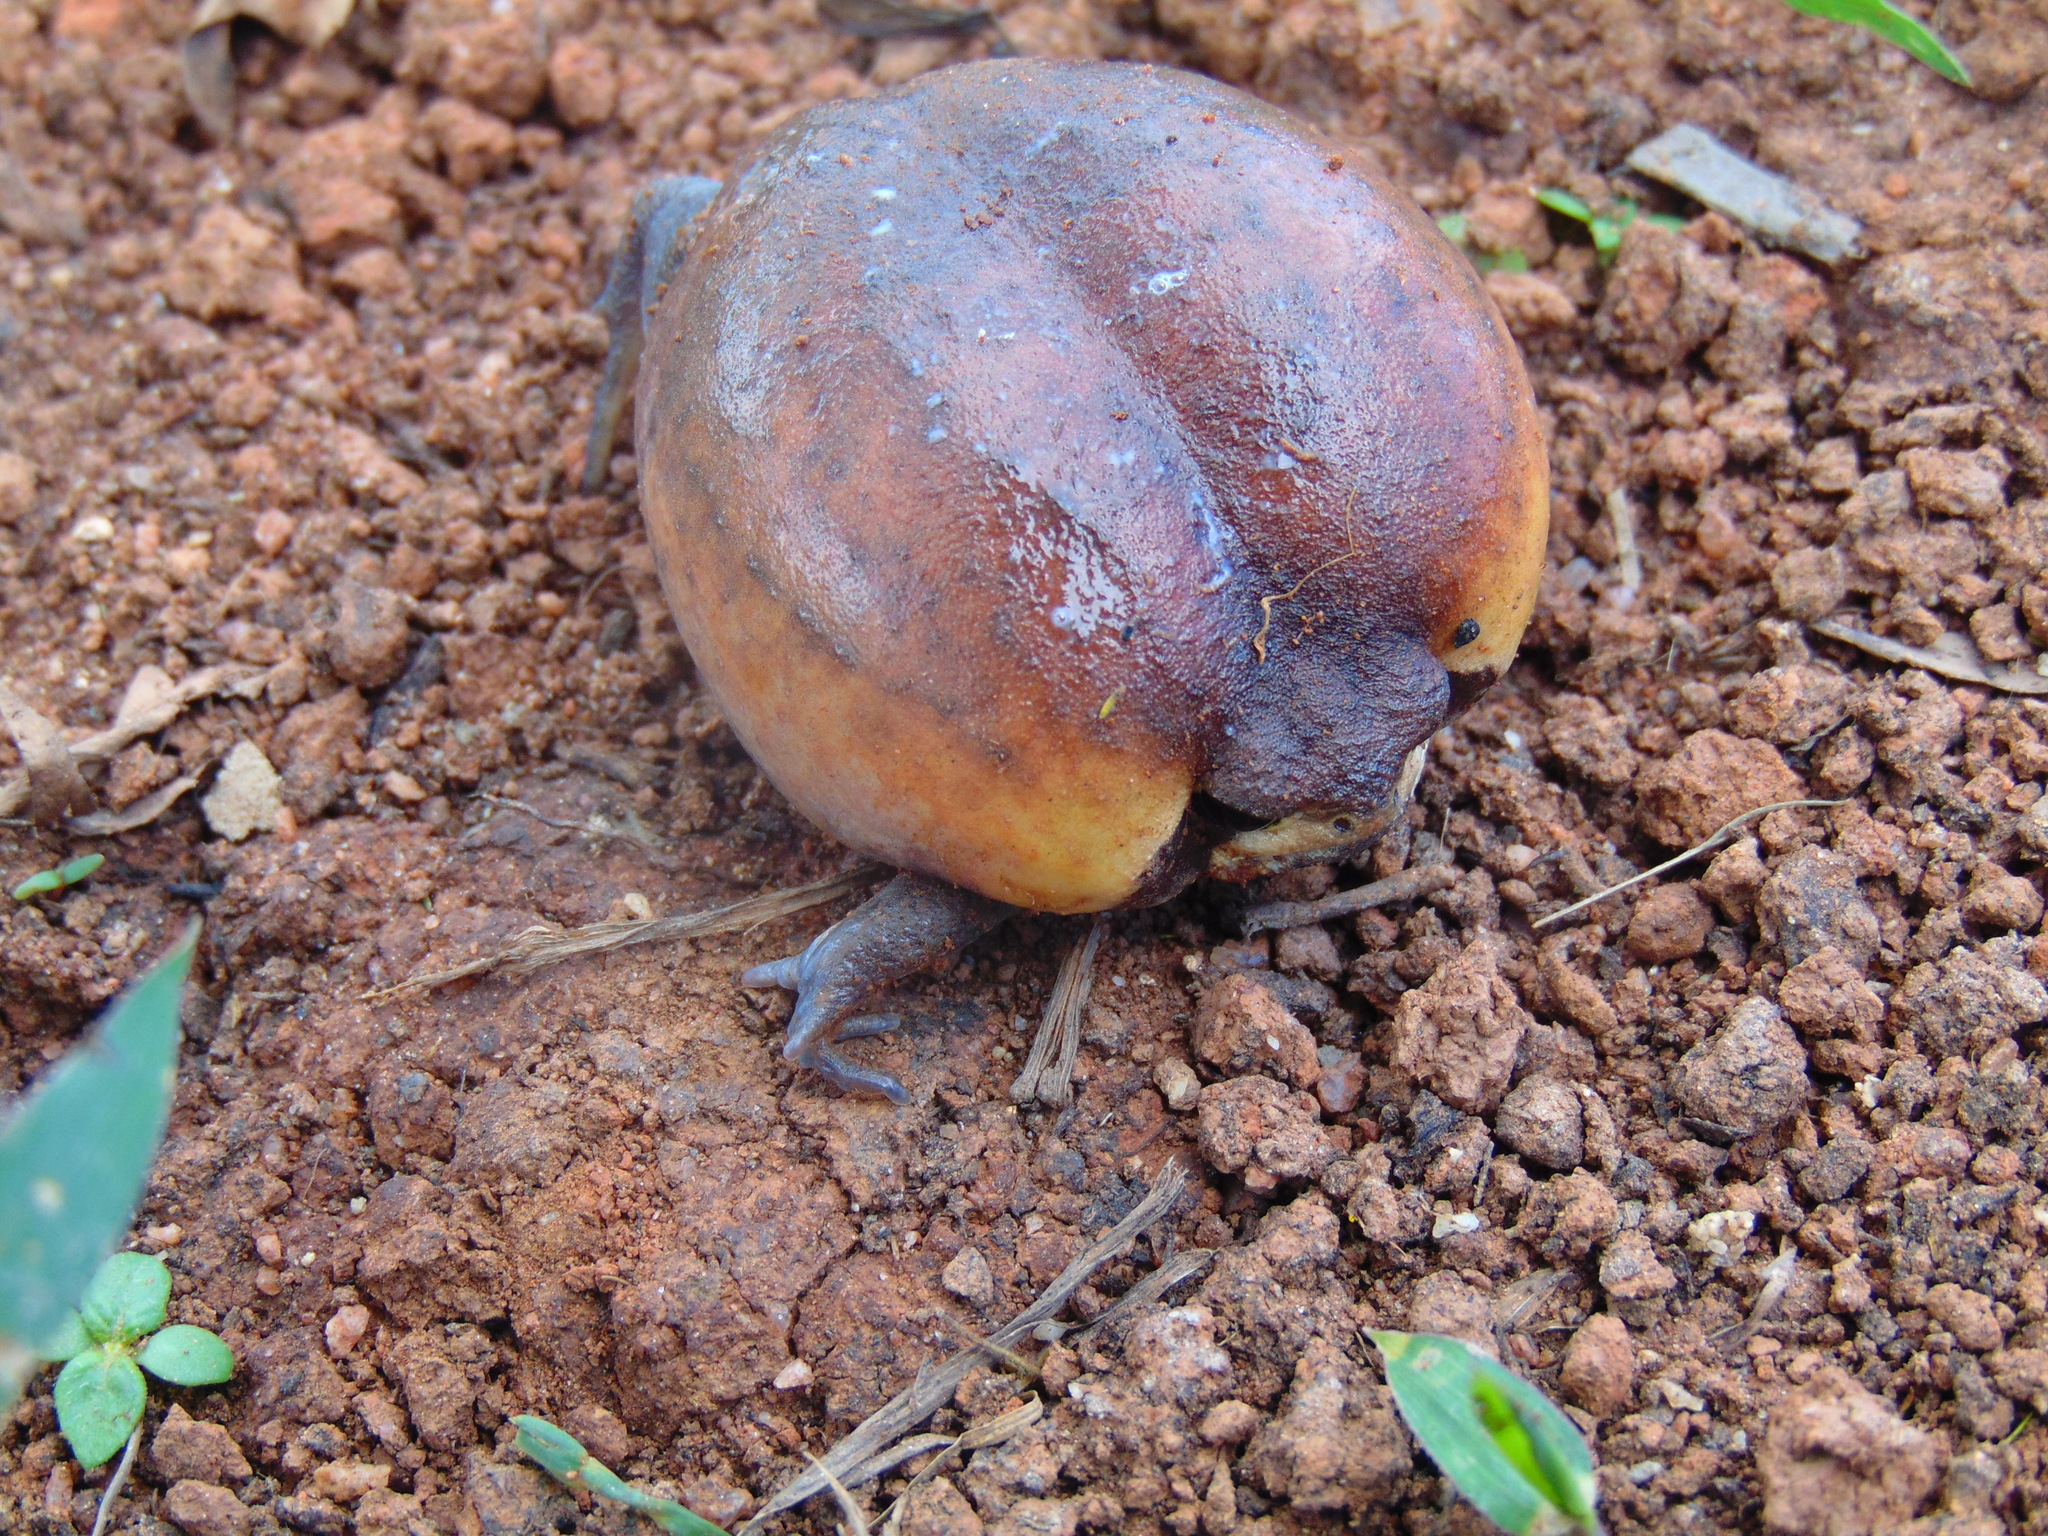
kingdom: Animalia
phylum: Chordata
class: Amphibia
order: Anura
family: Brevicipitidae
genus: Breviceps
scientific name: Breviceps fichus
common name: Highland rain frog
